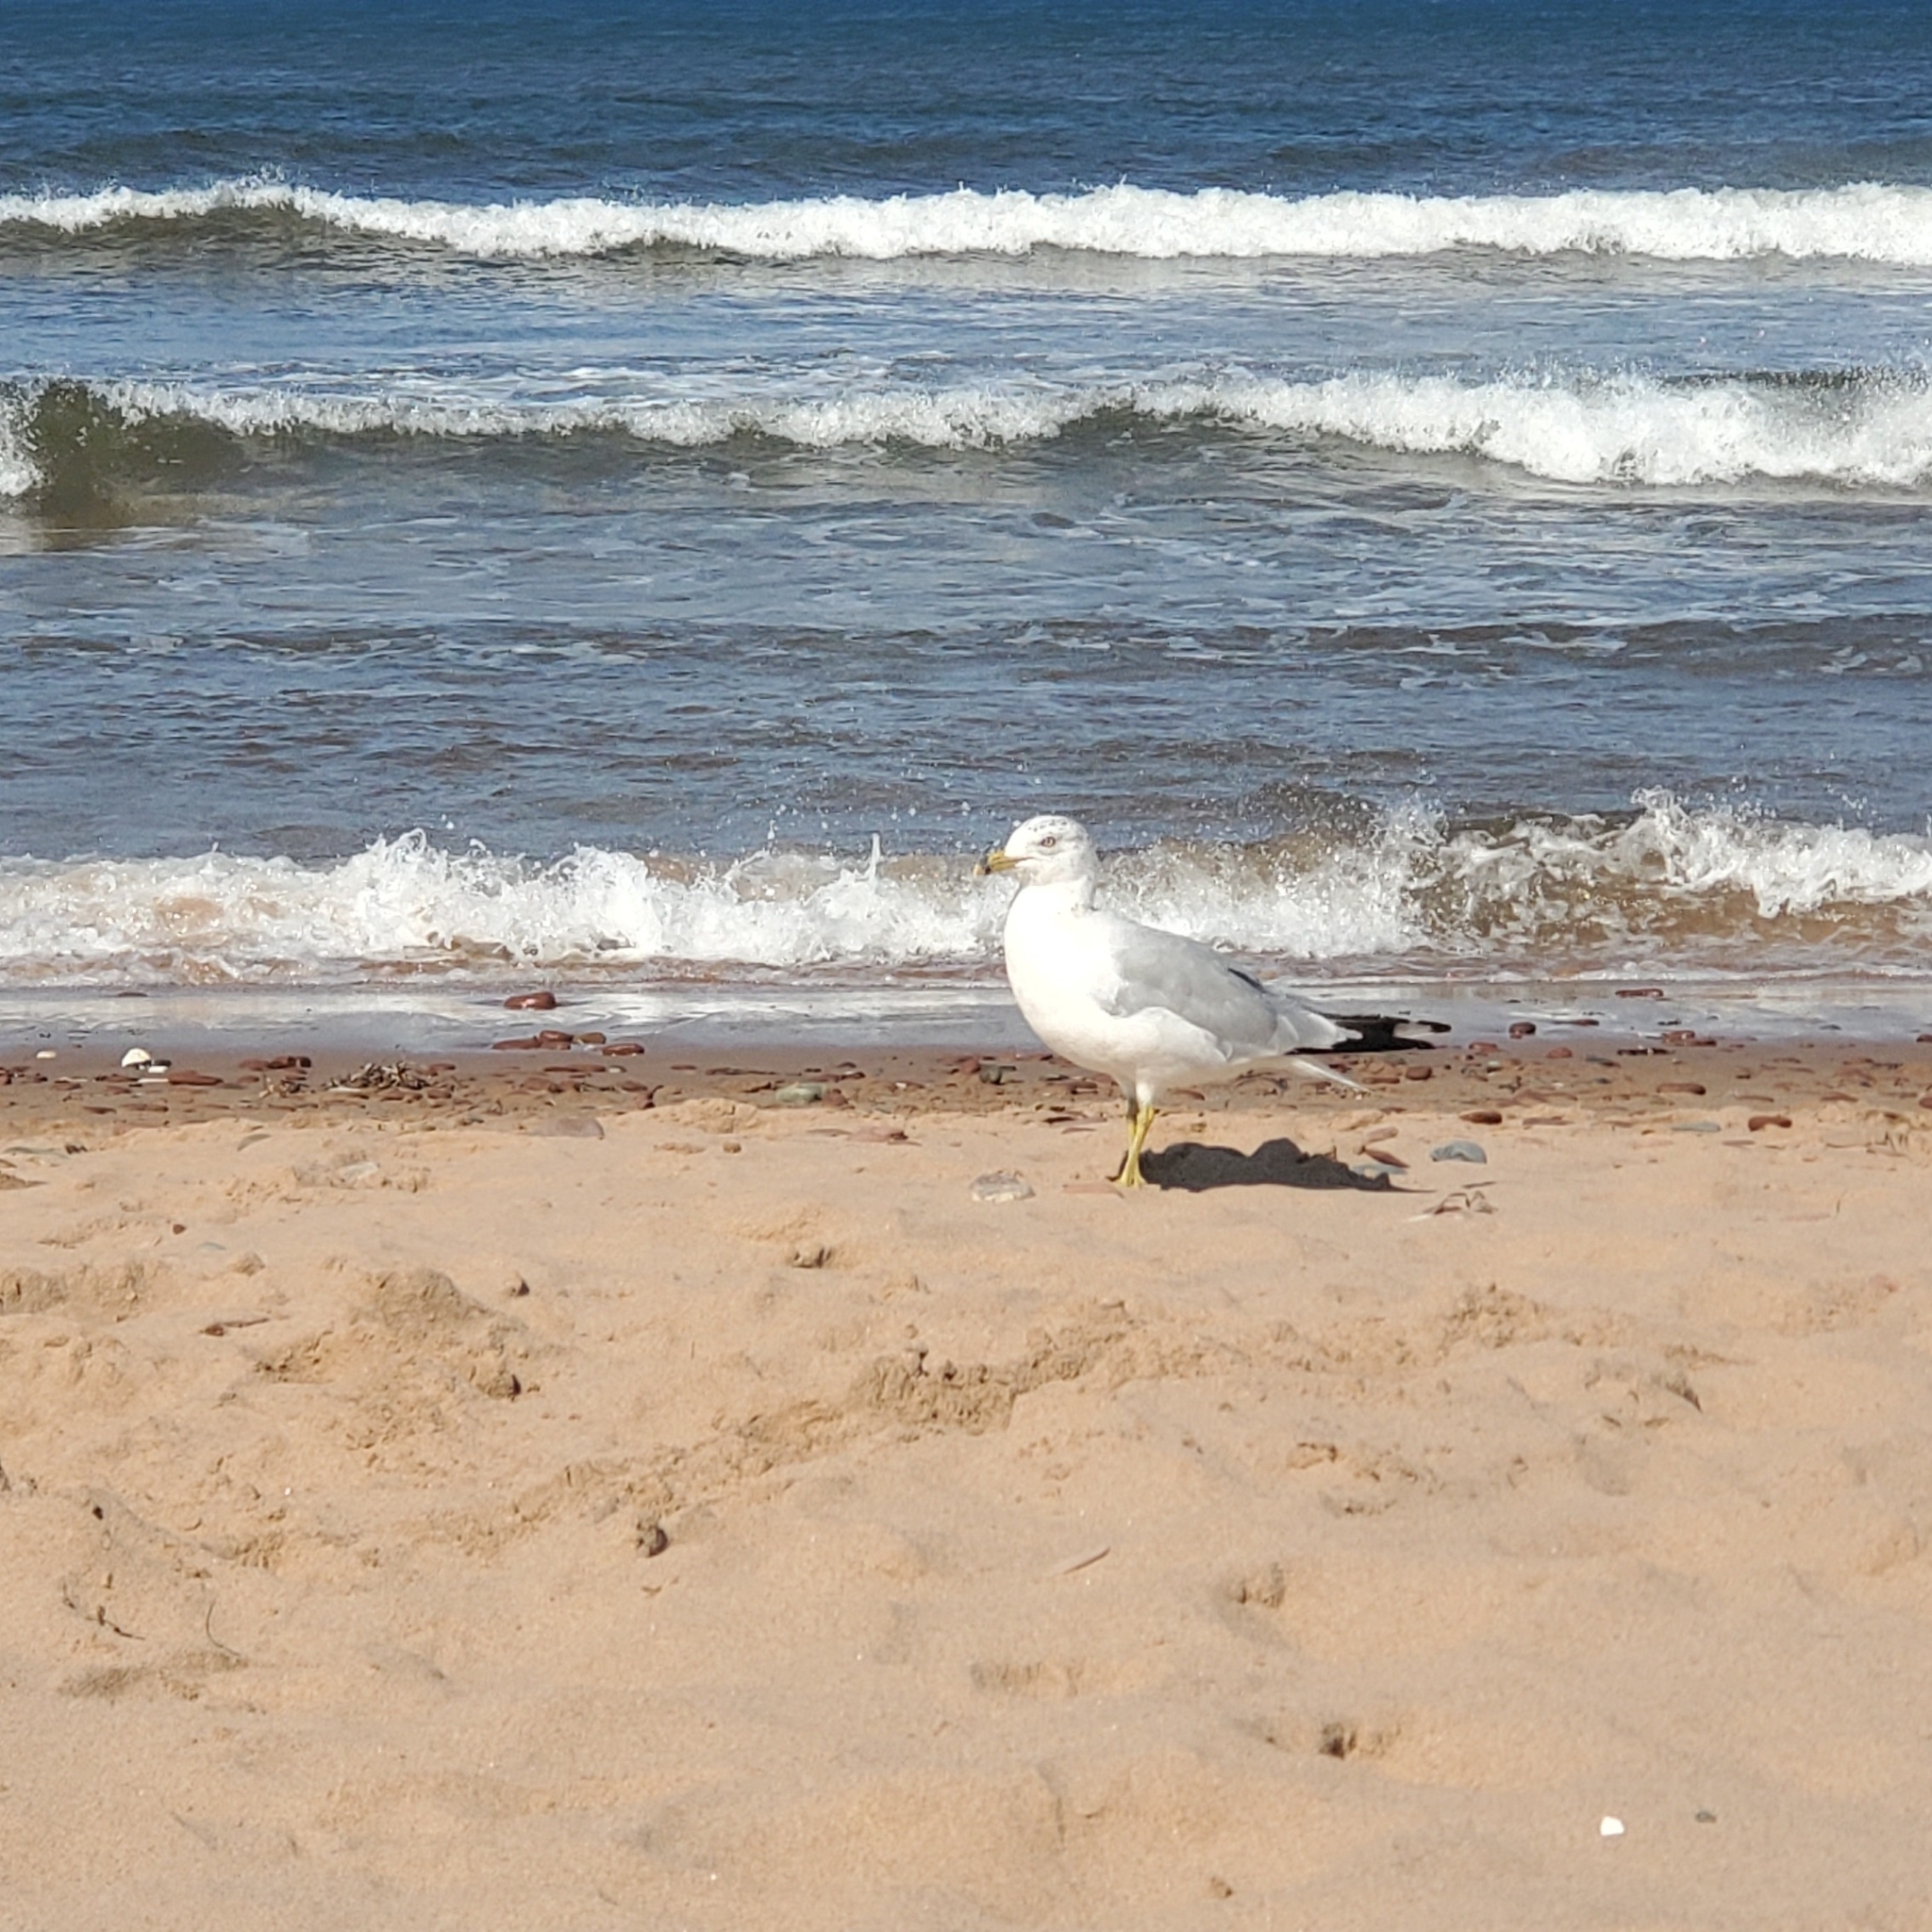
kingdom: Animalia
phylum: Chordata
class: Aves
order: Charadriiformes
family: Laridae
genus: Larus
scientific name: Larus delawarensis
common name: Ring-billed gull
